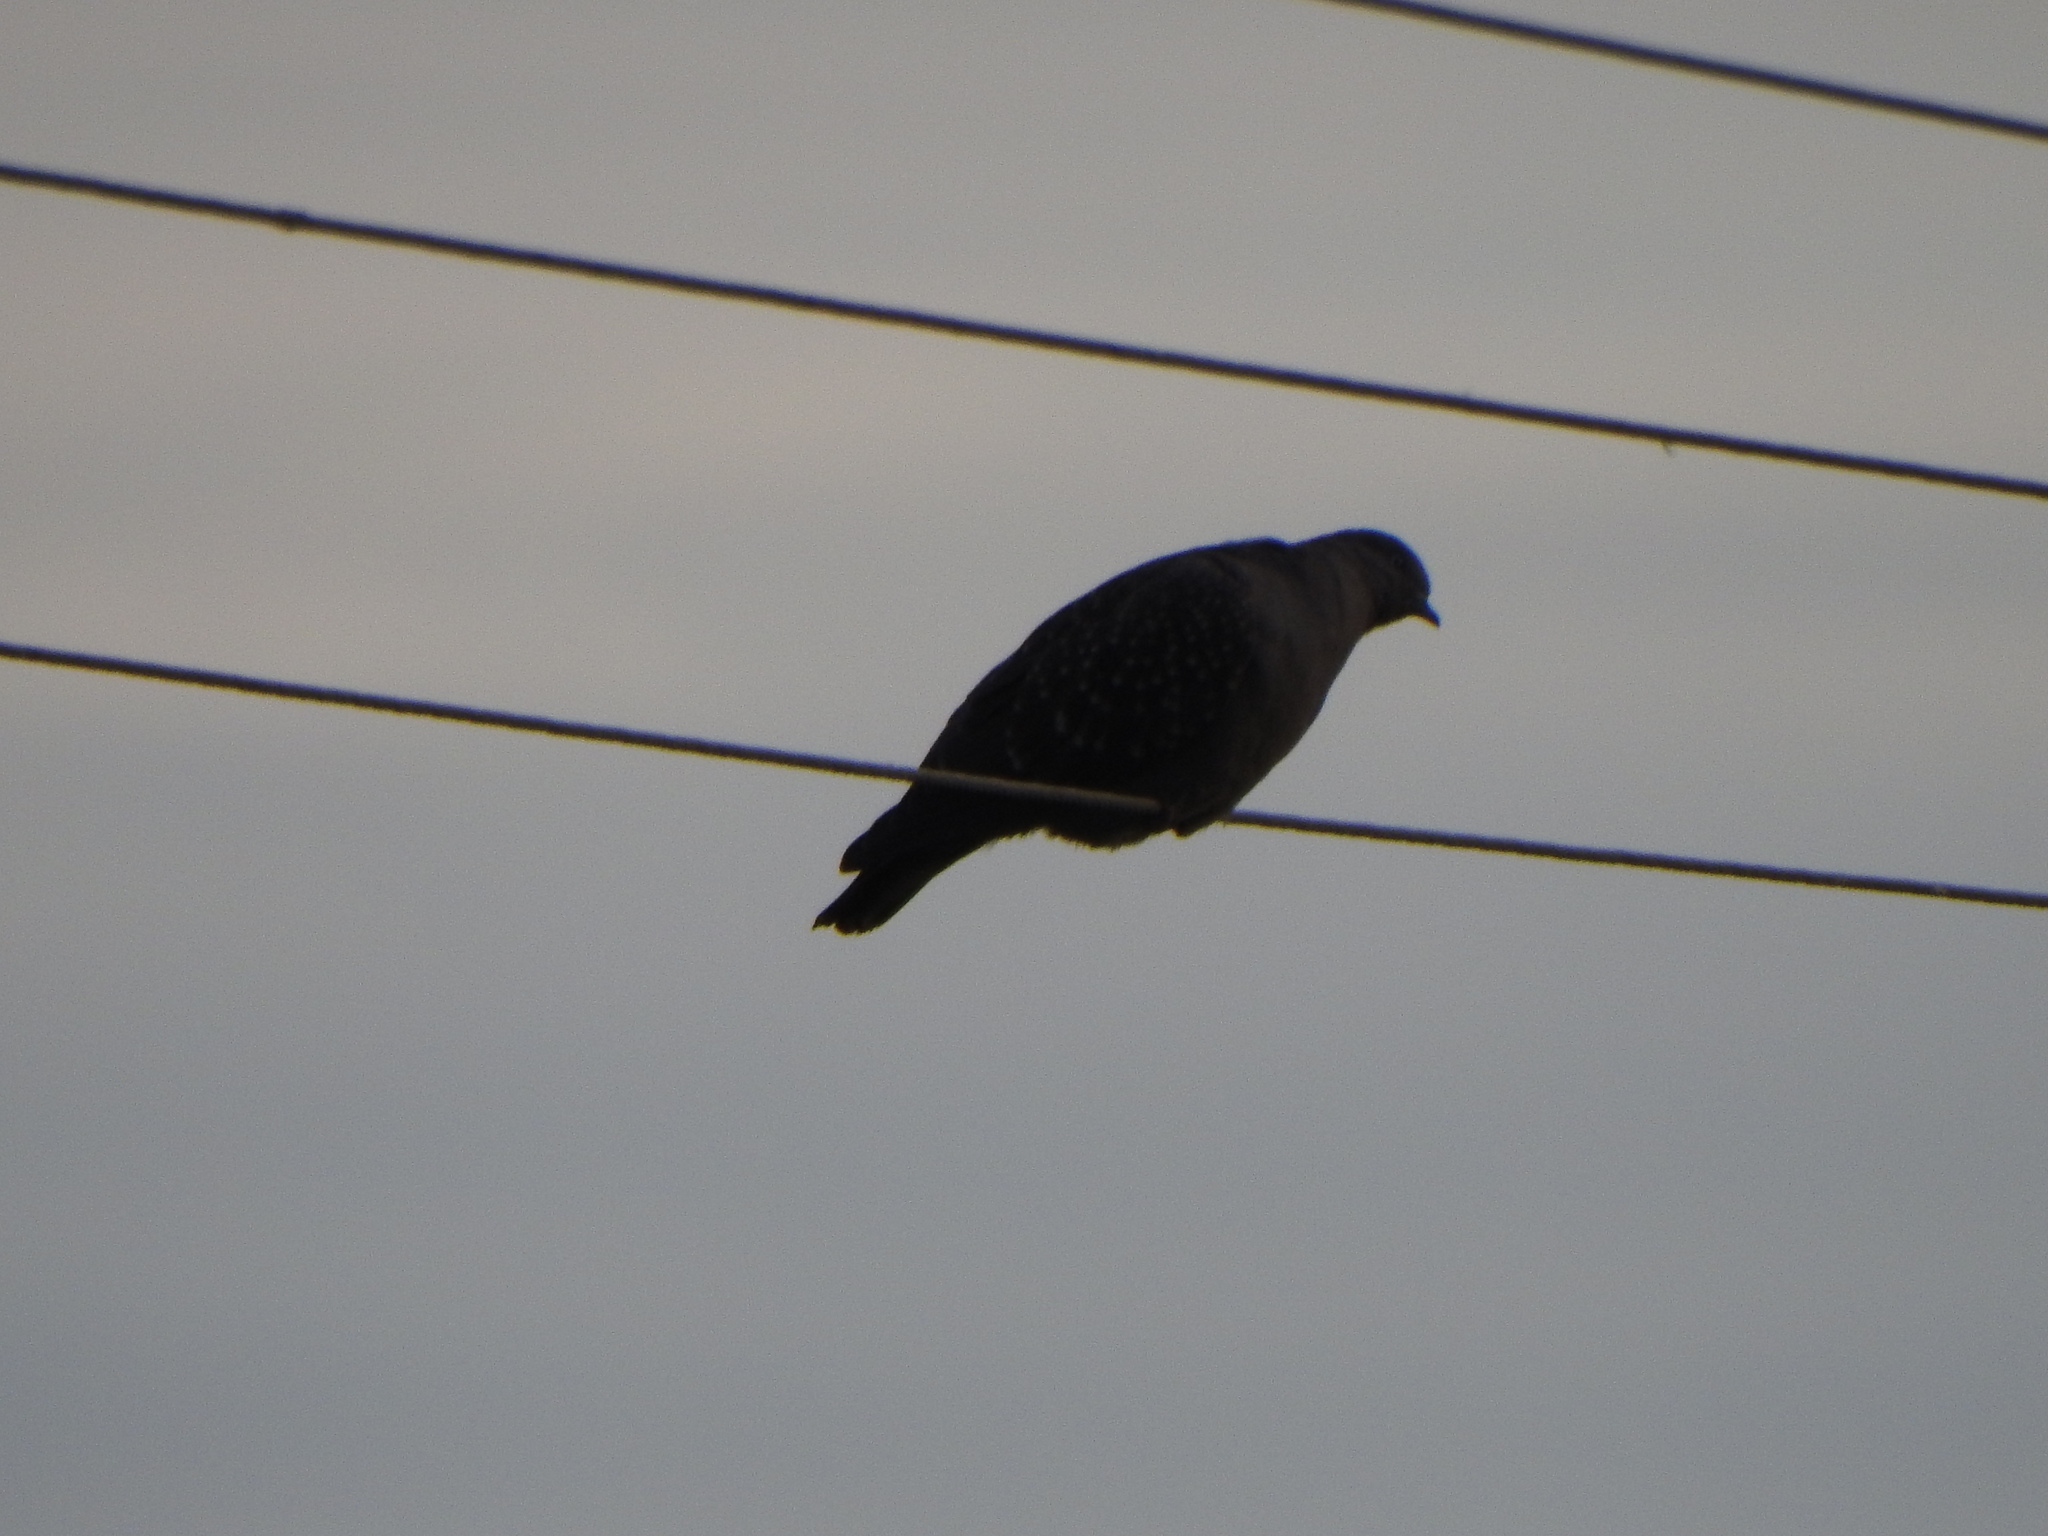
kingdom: Animalia
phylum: Chordata
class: Aves
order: Columbiformes
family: Columbidae
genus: Patagioenas
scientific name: Patagioenas maculosa
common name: Spot-winged pigeon
